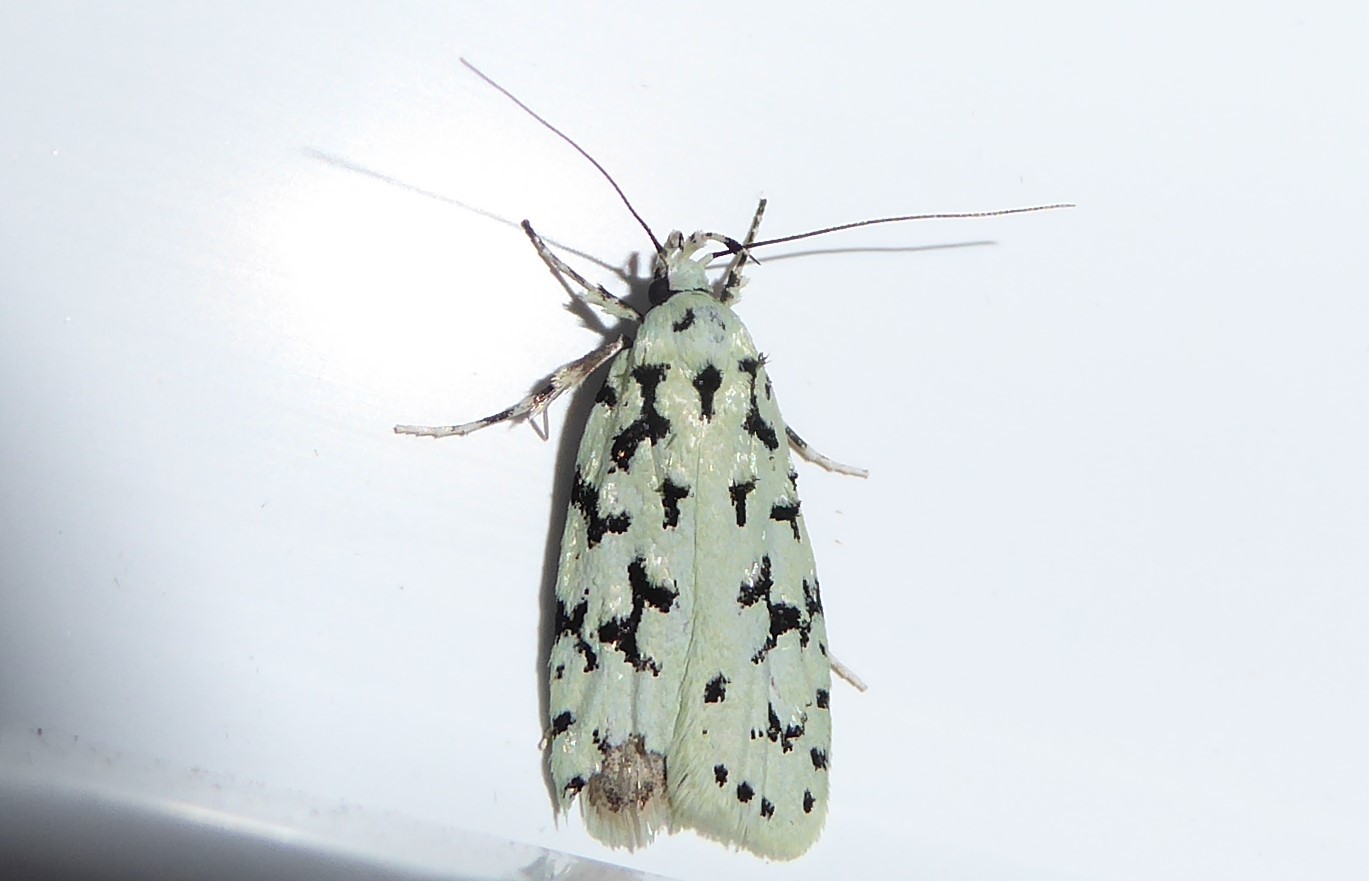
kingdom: Animalia
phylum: Arthropoda
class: Insecta
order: Lepidoptera
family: Oecophoridae
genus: Izatha
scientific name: Izatha huttoni
